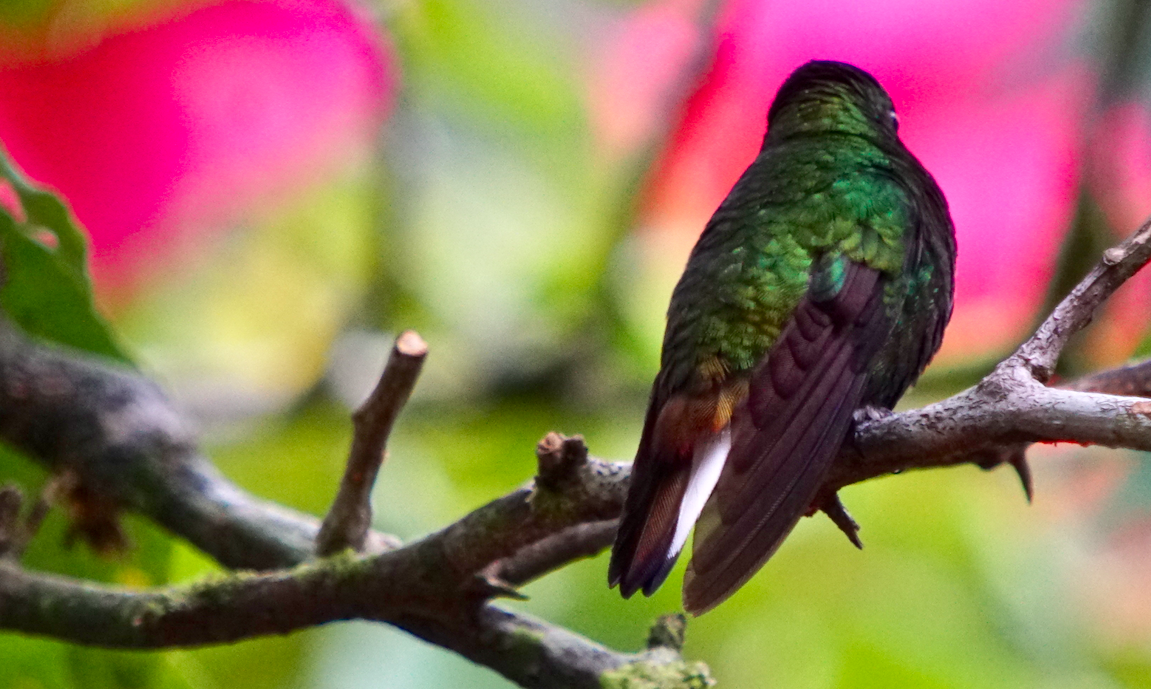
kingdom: Animalia
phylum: Chordata
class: Aves
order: Apodiformes
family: Trochilidae
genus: Microchera
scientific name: Microchera cupreiceps
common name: Coppery-headed emerald
